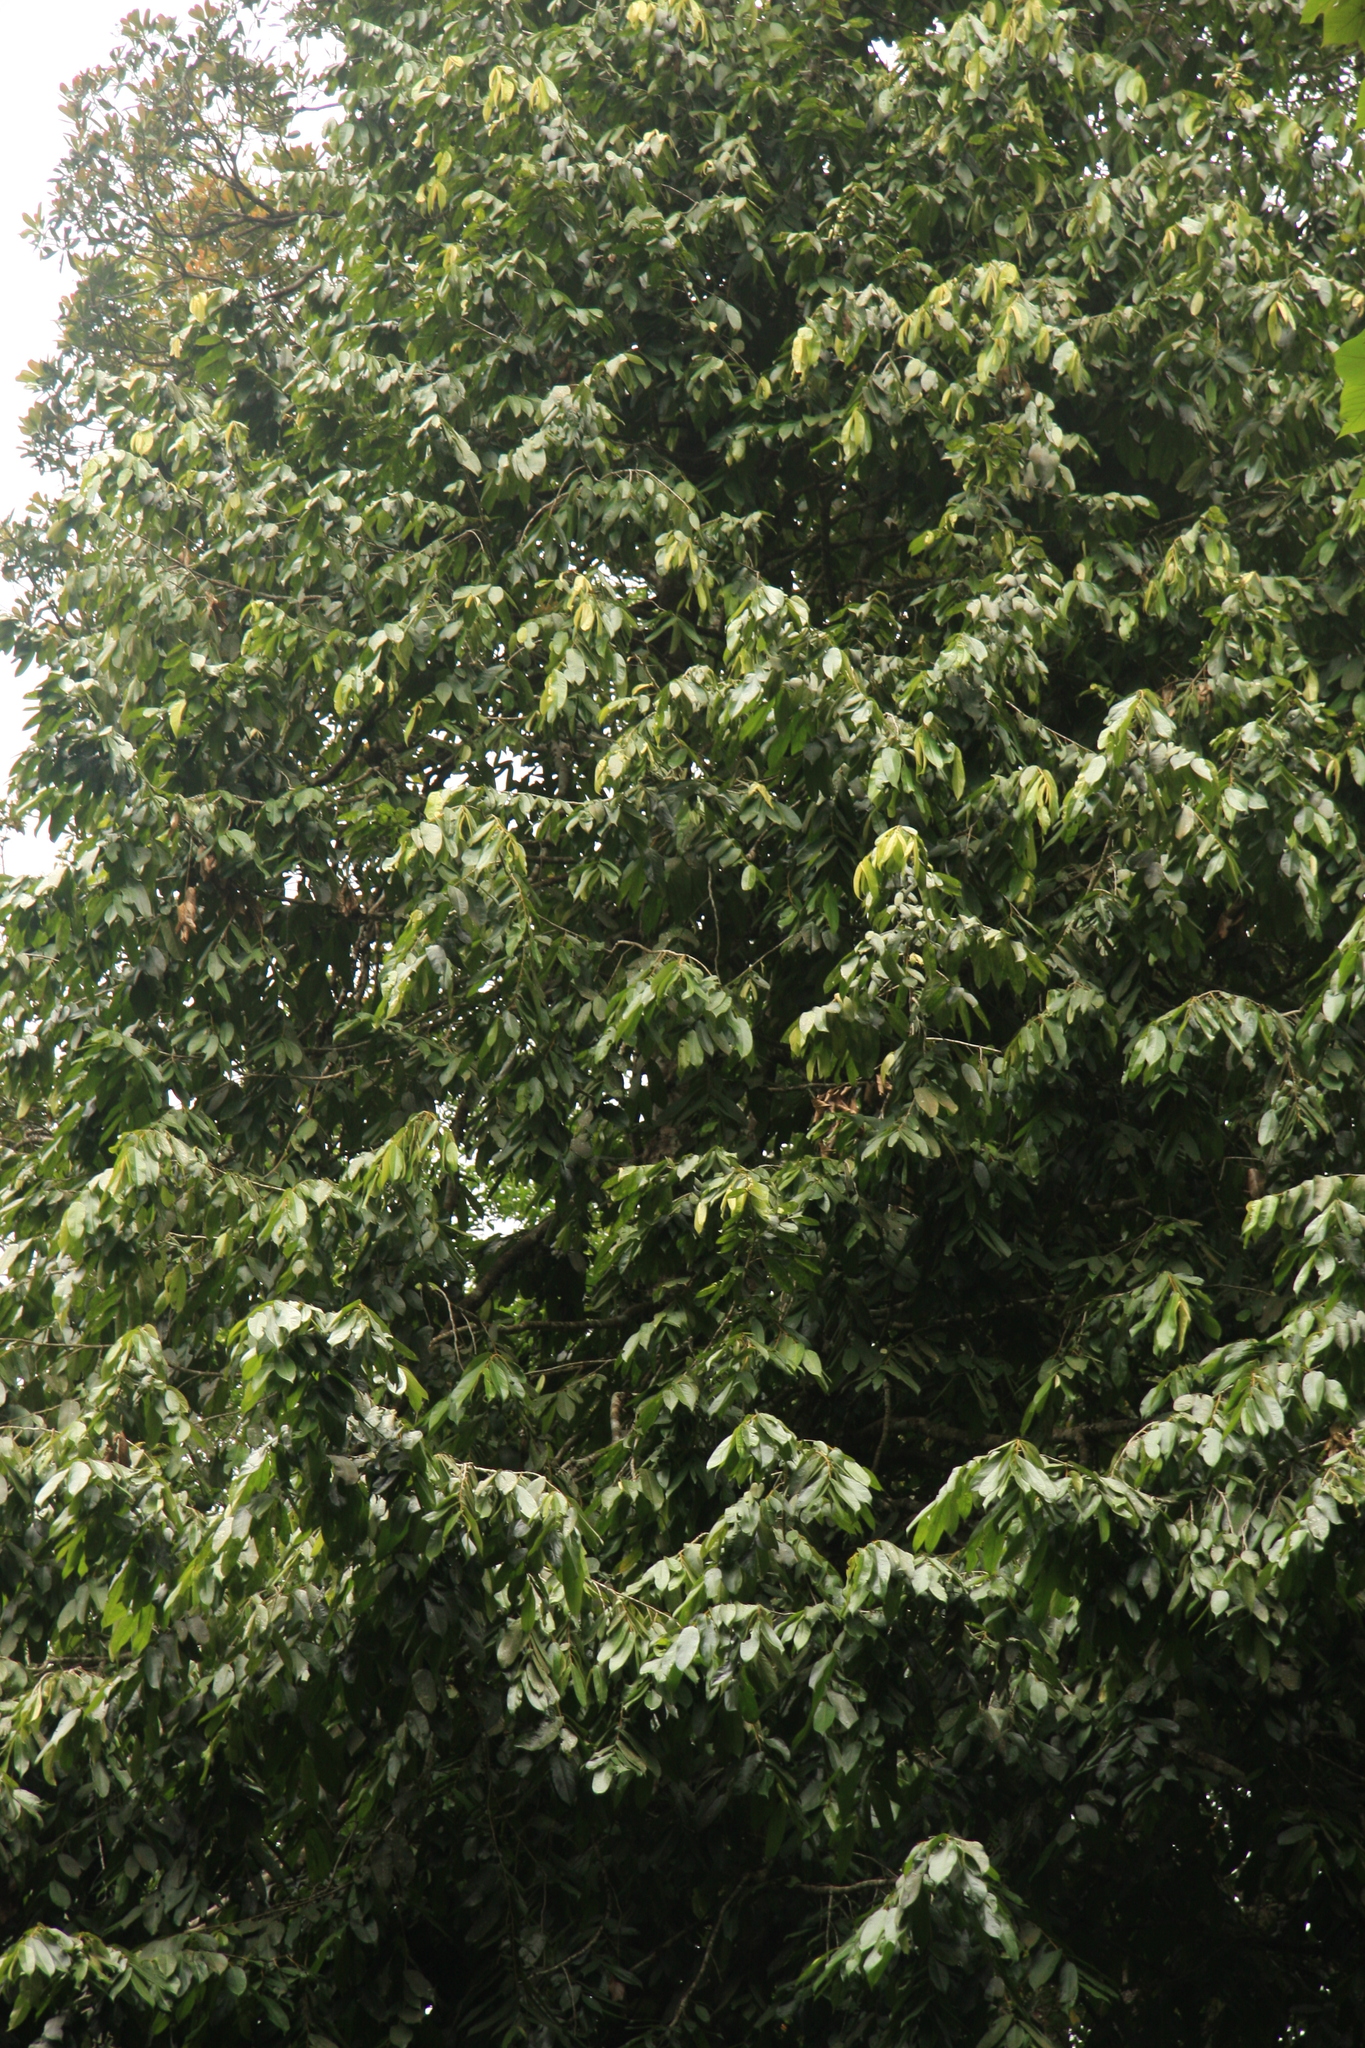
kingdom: Plantae
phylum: Tracheophyta
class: Magnoliopsida
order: Malpighiales
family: Putranjivaceae
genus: Drypetes
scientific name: Drypetes malabarica
